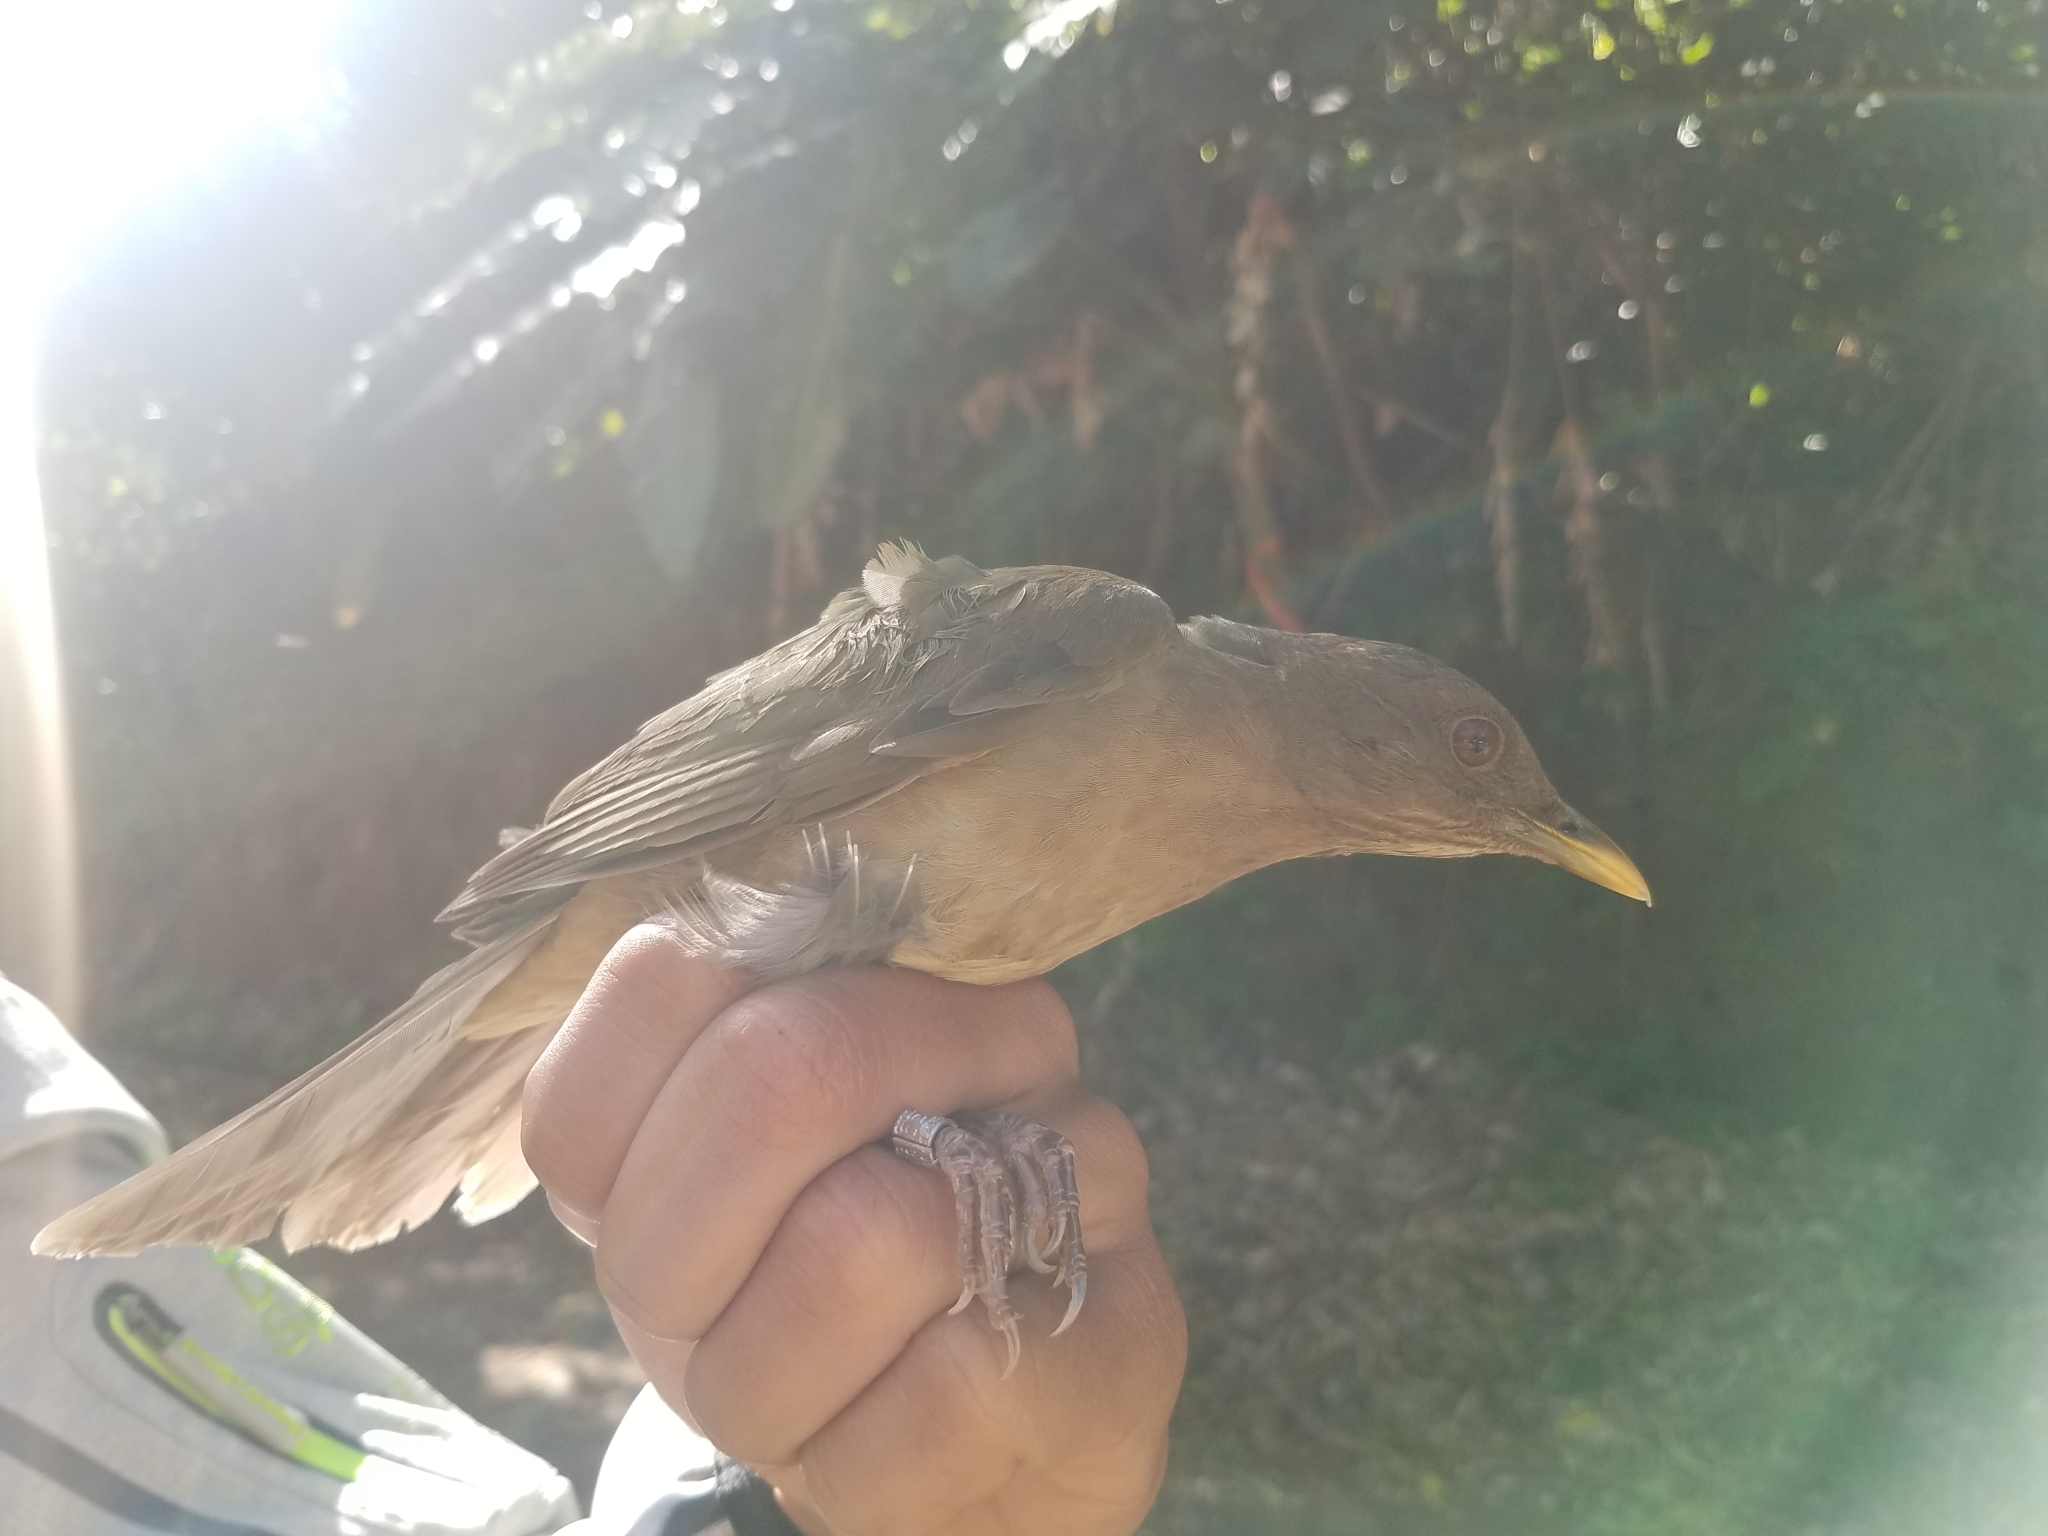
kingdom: Animalia
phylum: Chordata
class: Aves
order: Passeriformes
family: Turdidae
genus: Turdus
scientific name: Turdus grayi
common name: Clay-colored thrush
